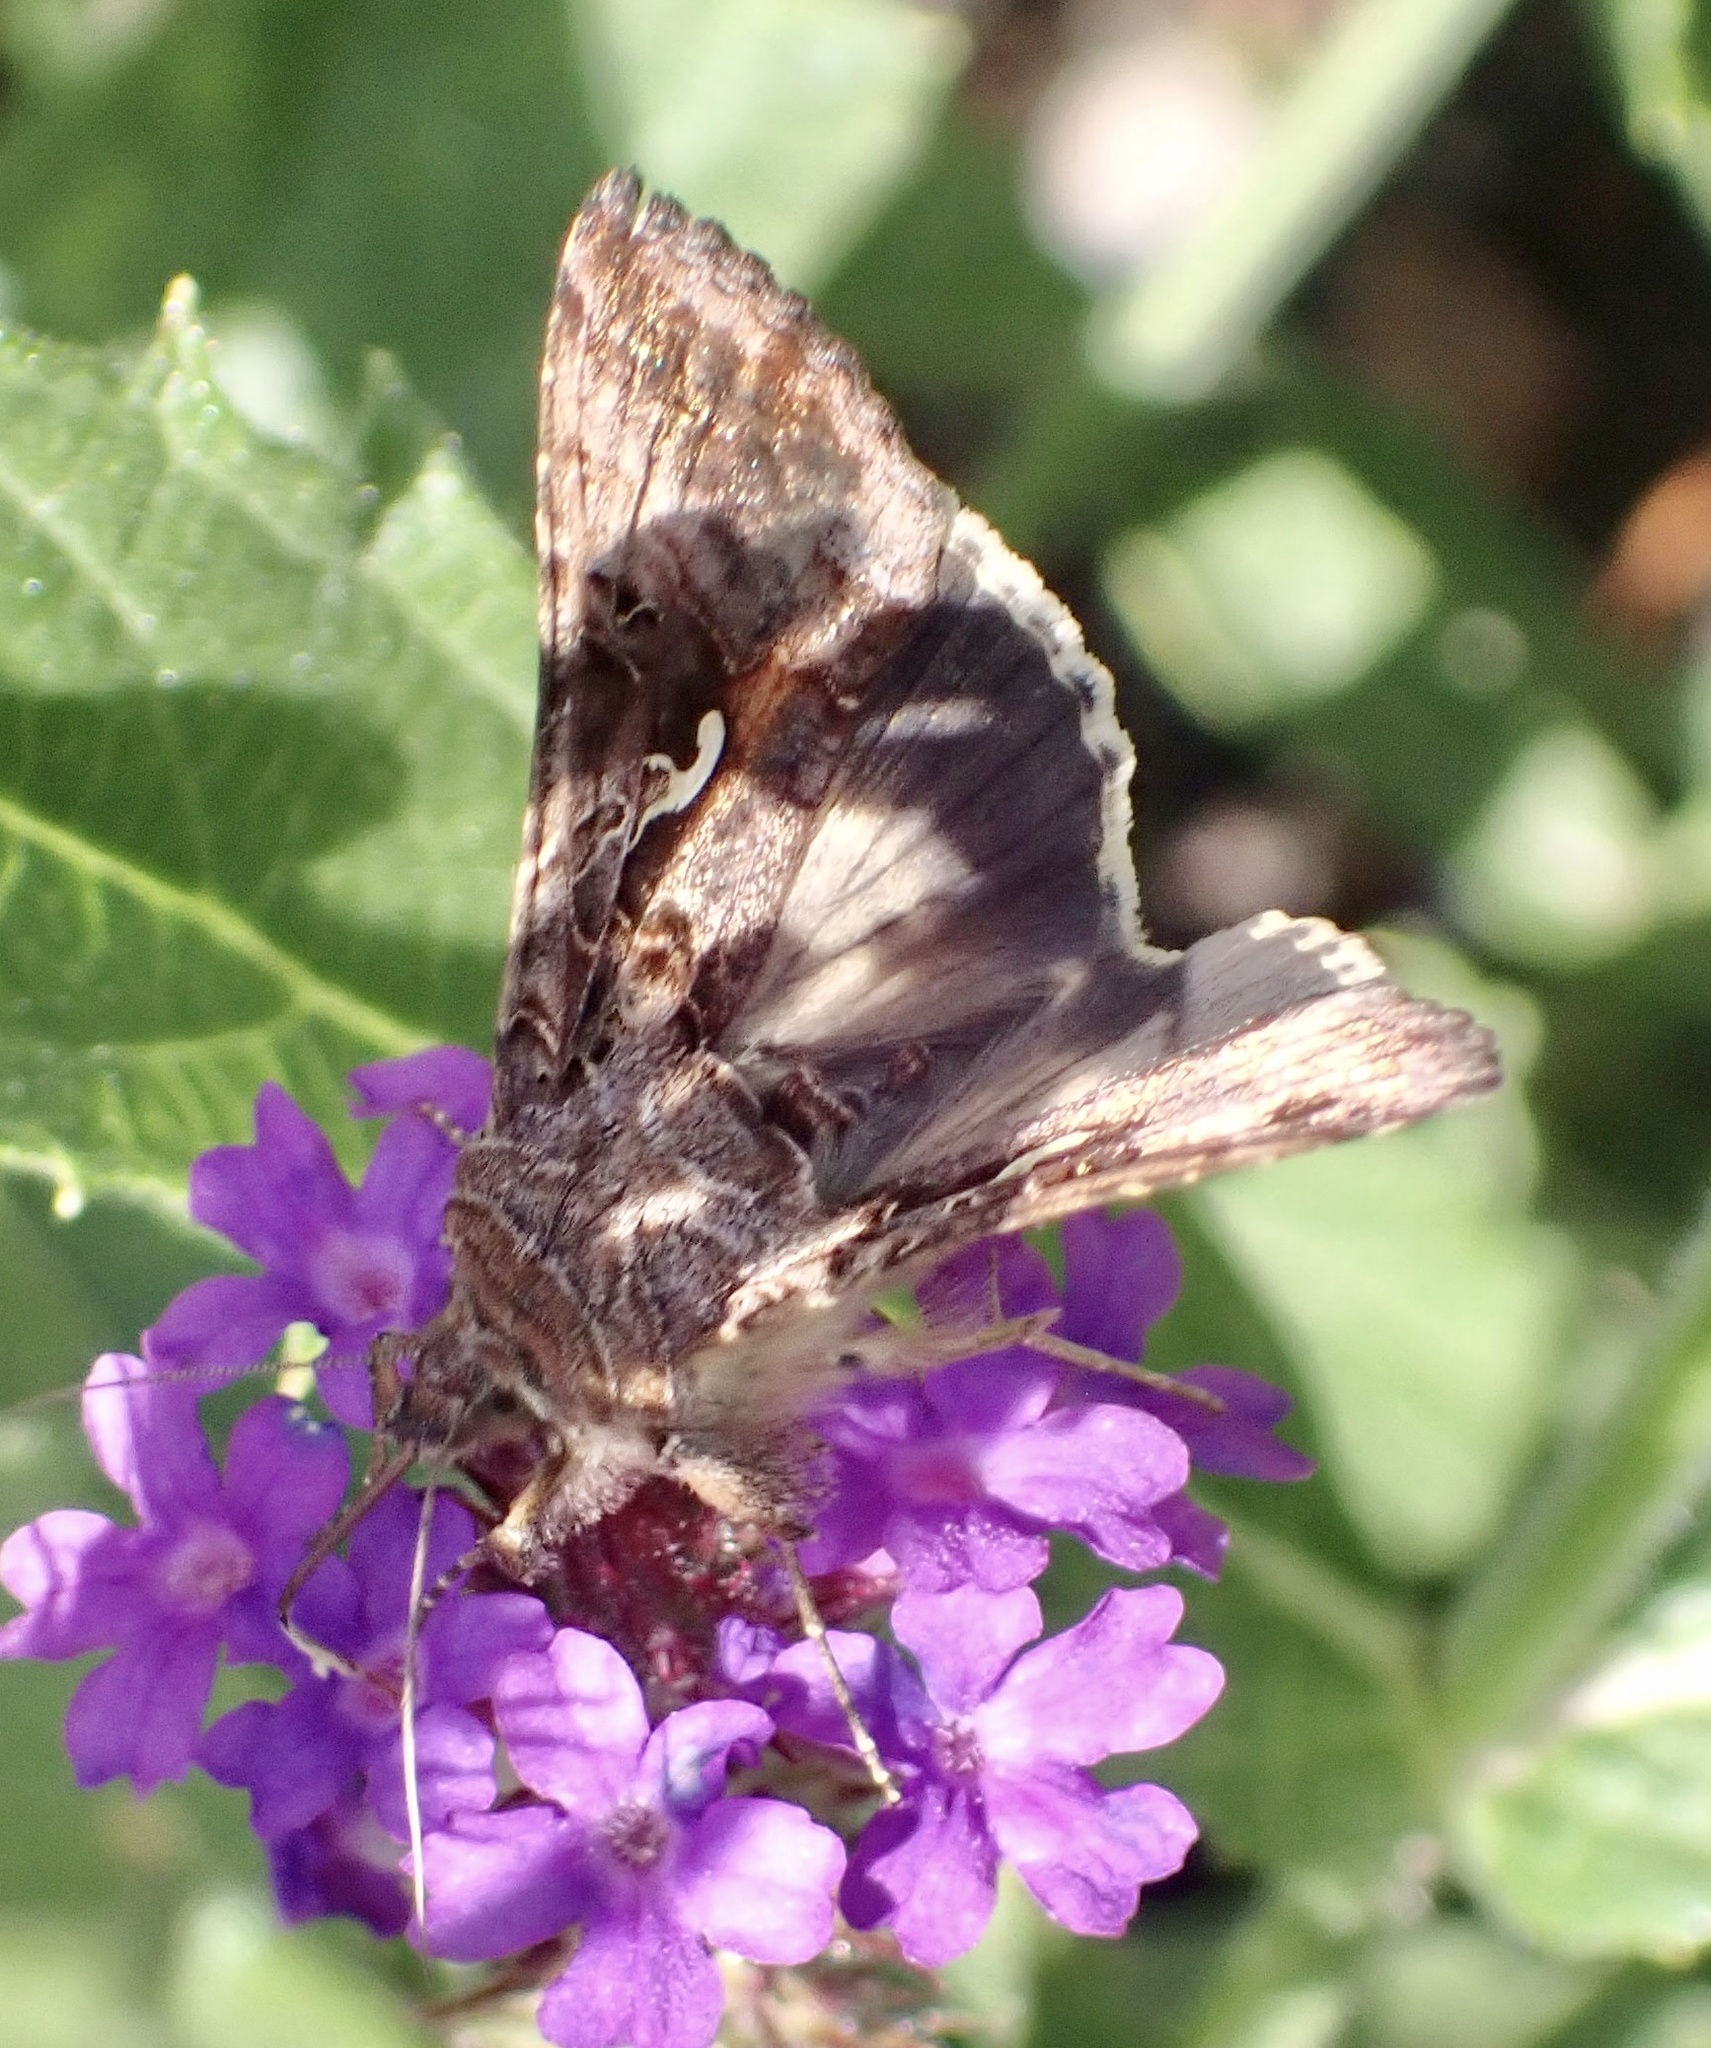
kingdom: Animalia
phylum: Arthropoda
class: Insecta
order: Lepidoptera
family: Noctuidae
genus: Autographa
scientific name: Autographa gamma
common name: Silver y
